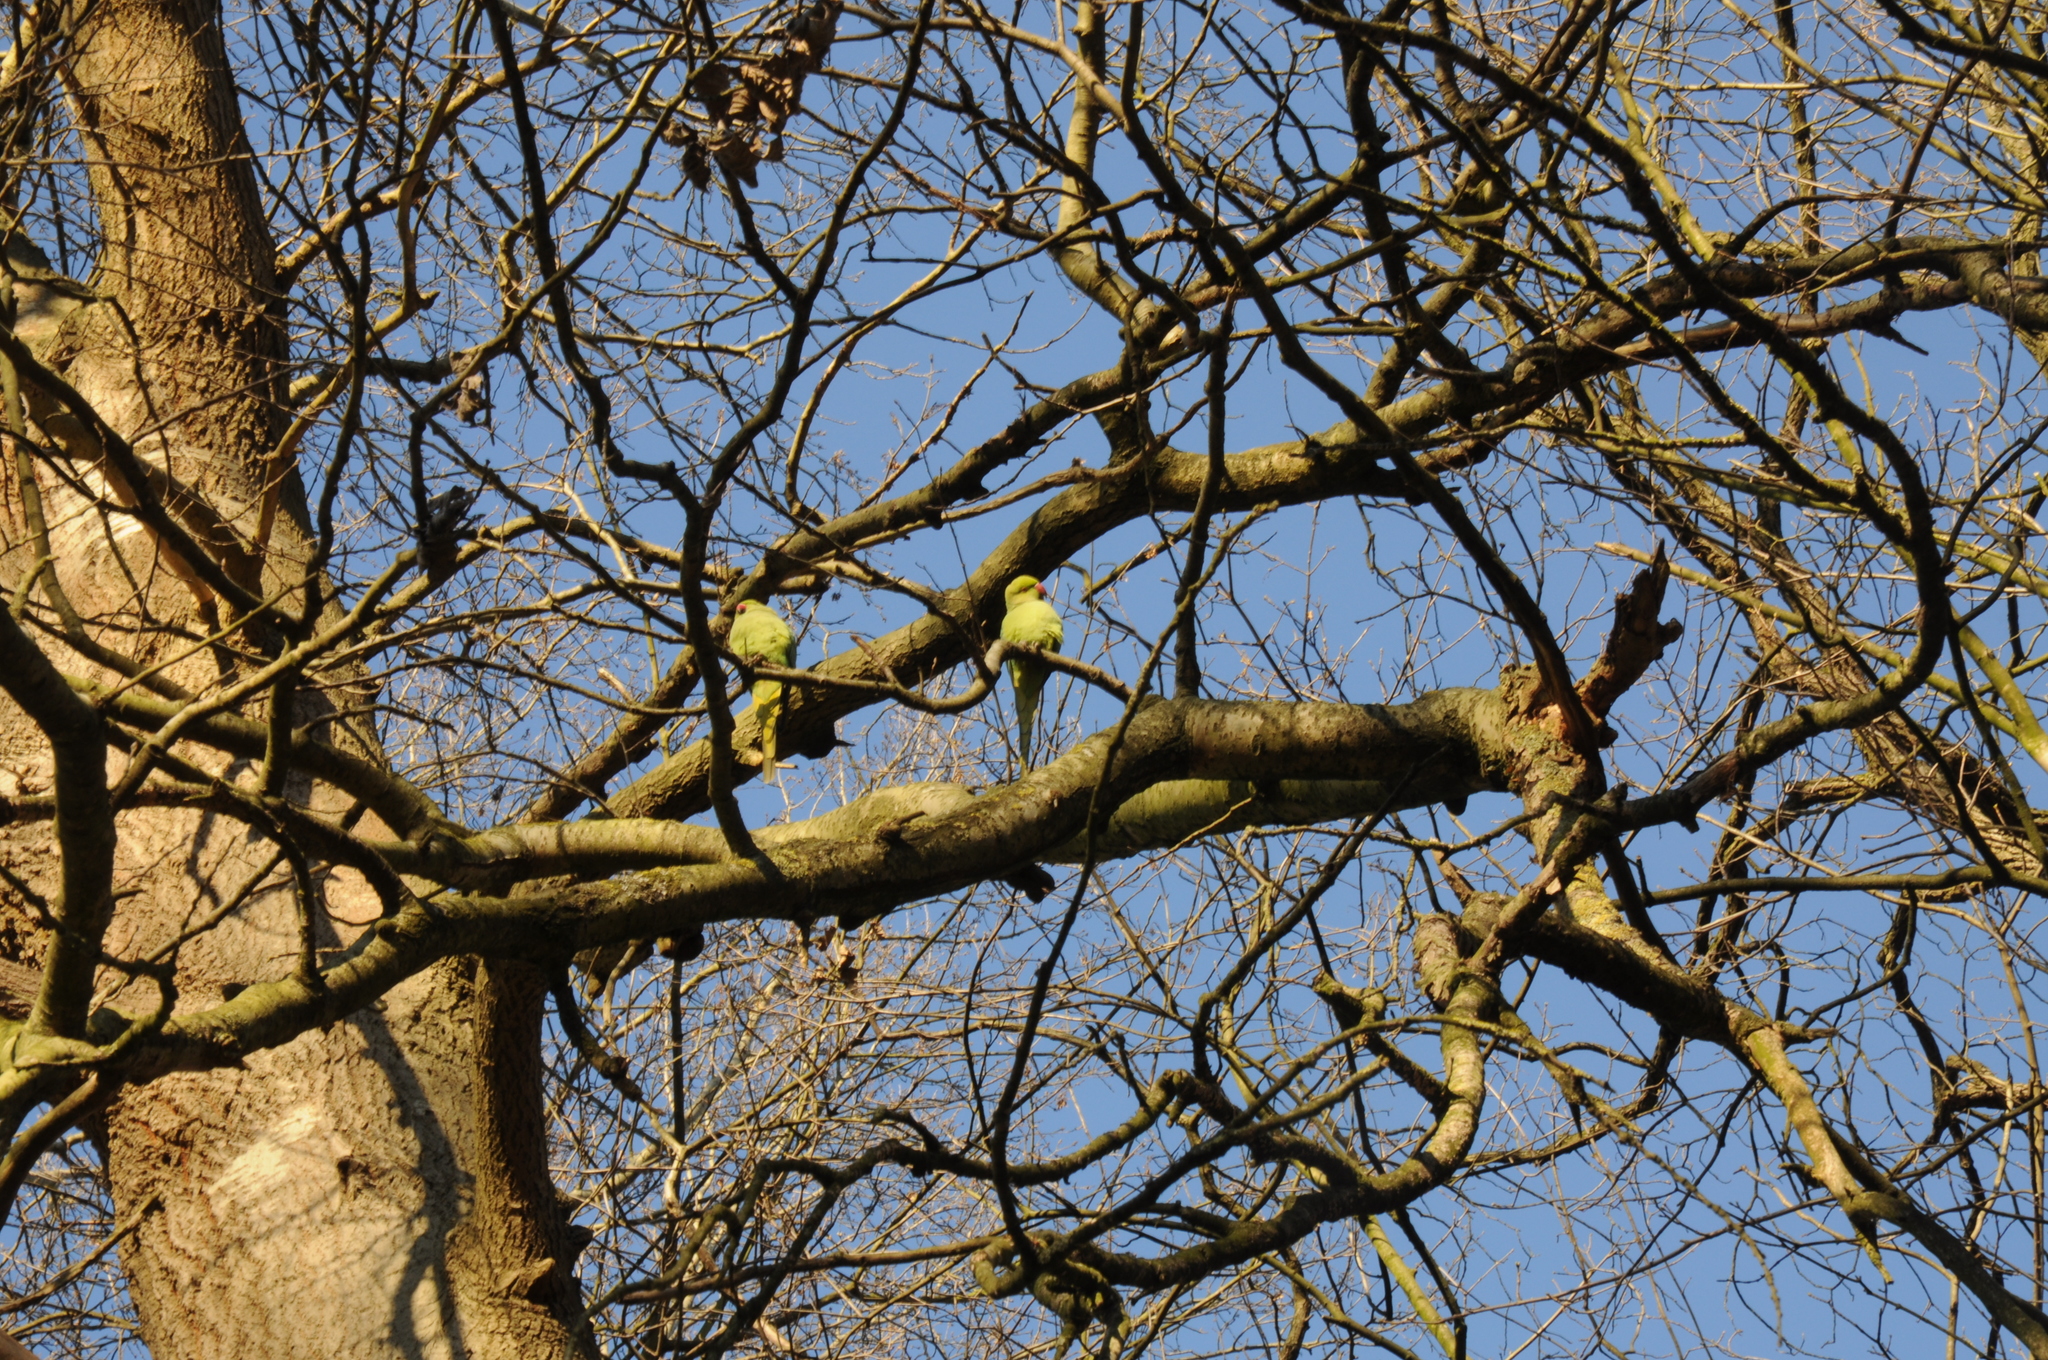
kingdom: Animalia
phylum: Chordata
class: Aves
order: Psittaciformes
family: Psittacidae
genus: Psittacula
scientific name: Psittacula krameri
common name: Rose-ringed parakeet
